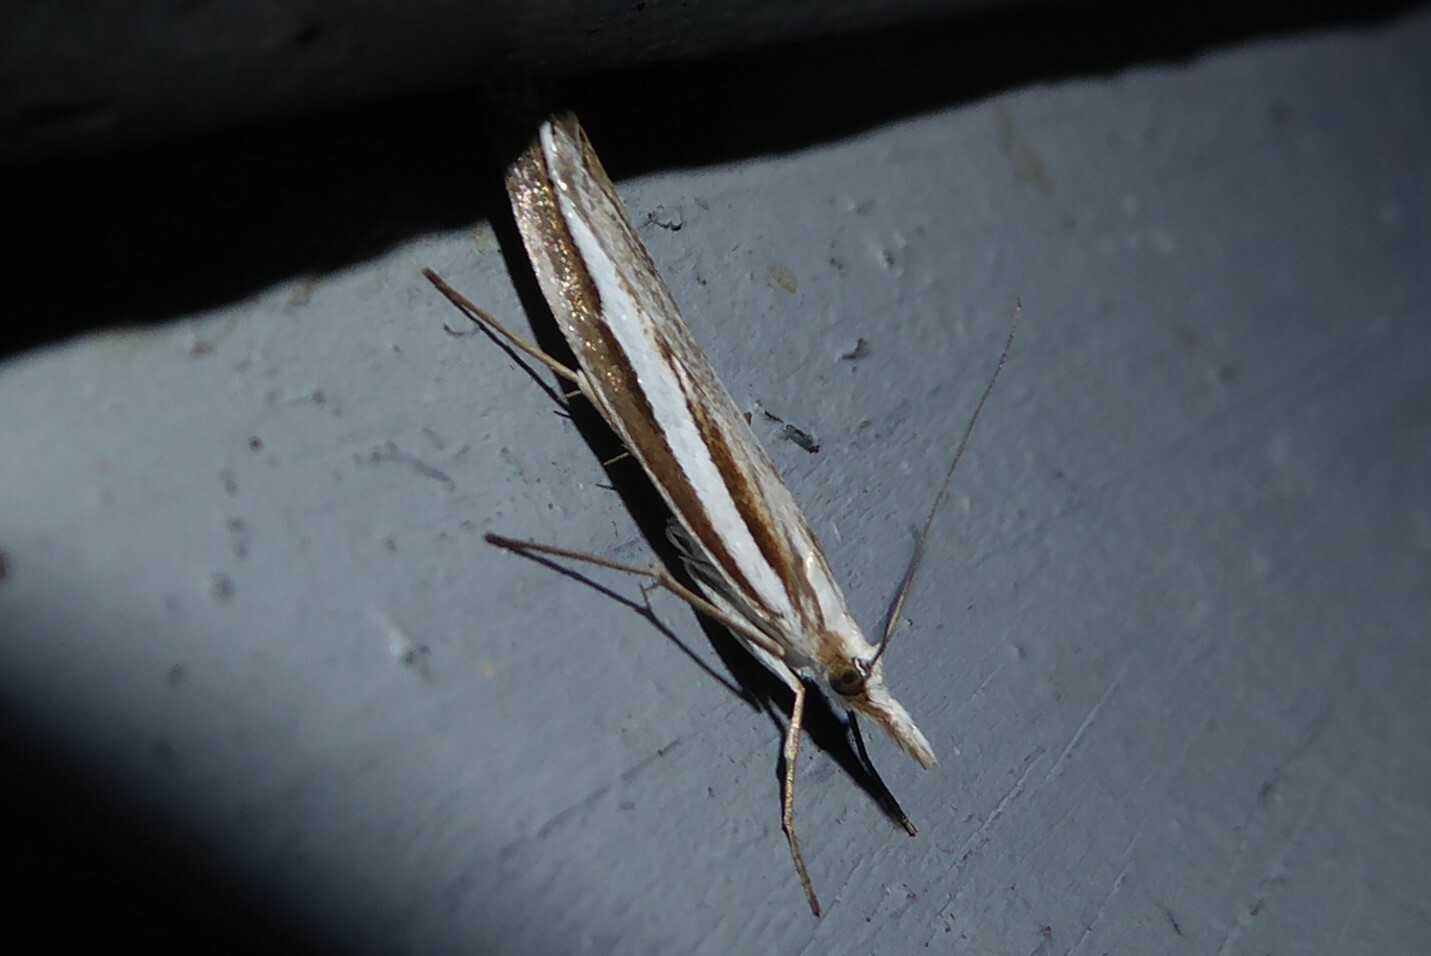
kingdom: Animalia
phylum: Arthropoda
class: Insecta
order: Lepidoptera
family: Crambidae
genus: Orocrambus
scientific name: Orocrambus vittellus
